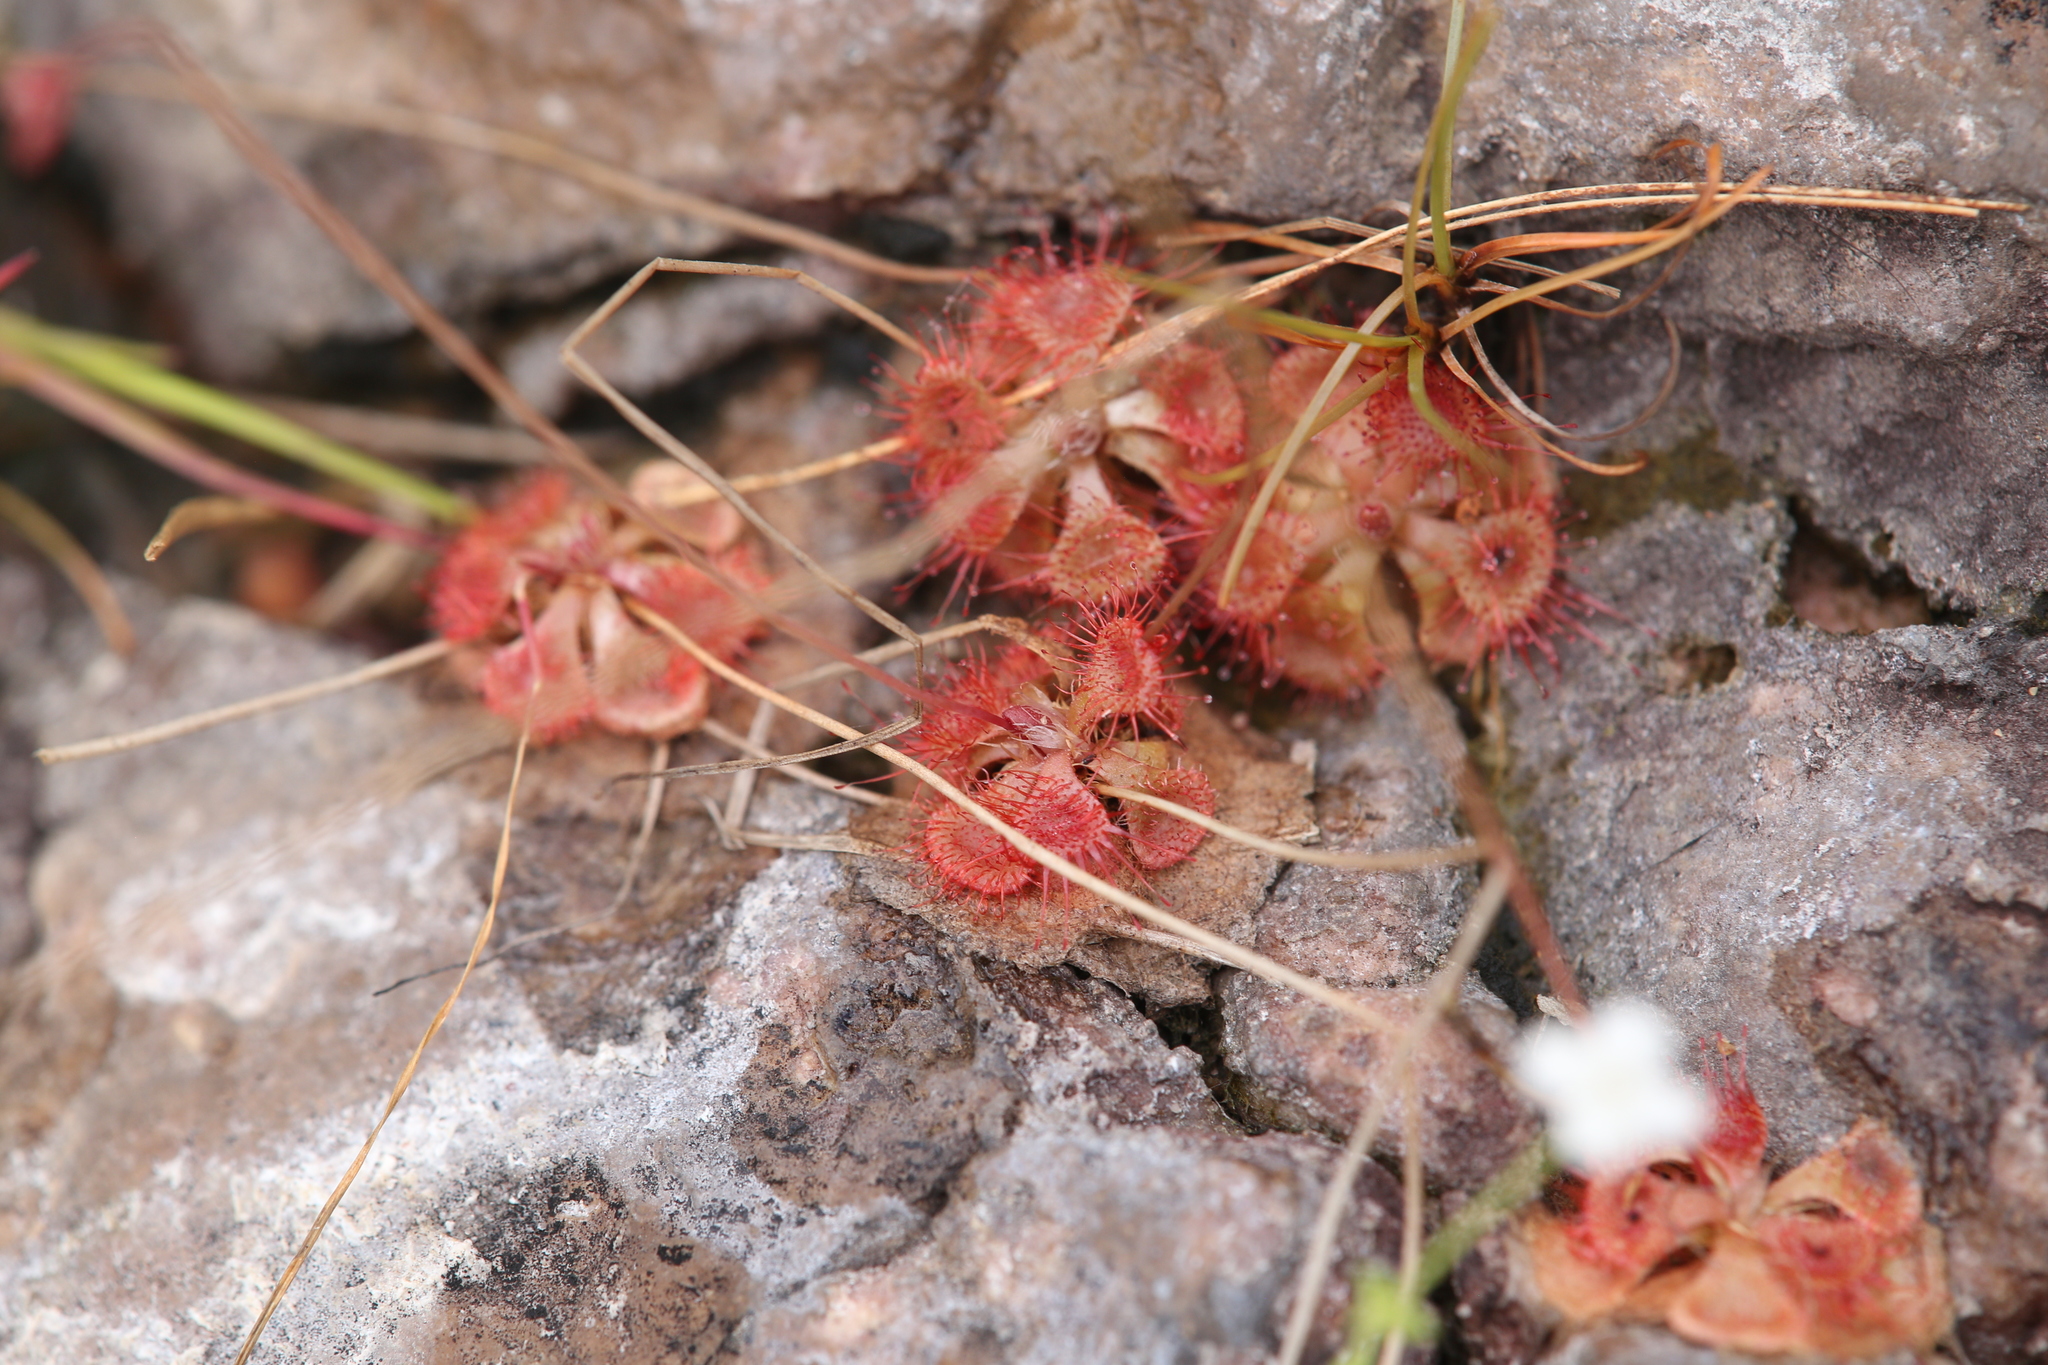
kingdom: Plantae
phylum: Tracheophyta
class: Magnoliopsida
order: Caryophyllales
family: Droseraceae
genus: Drosera
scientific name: Drosera spatulata
